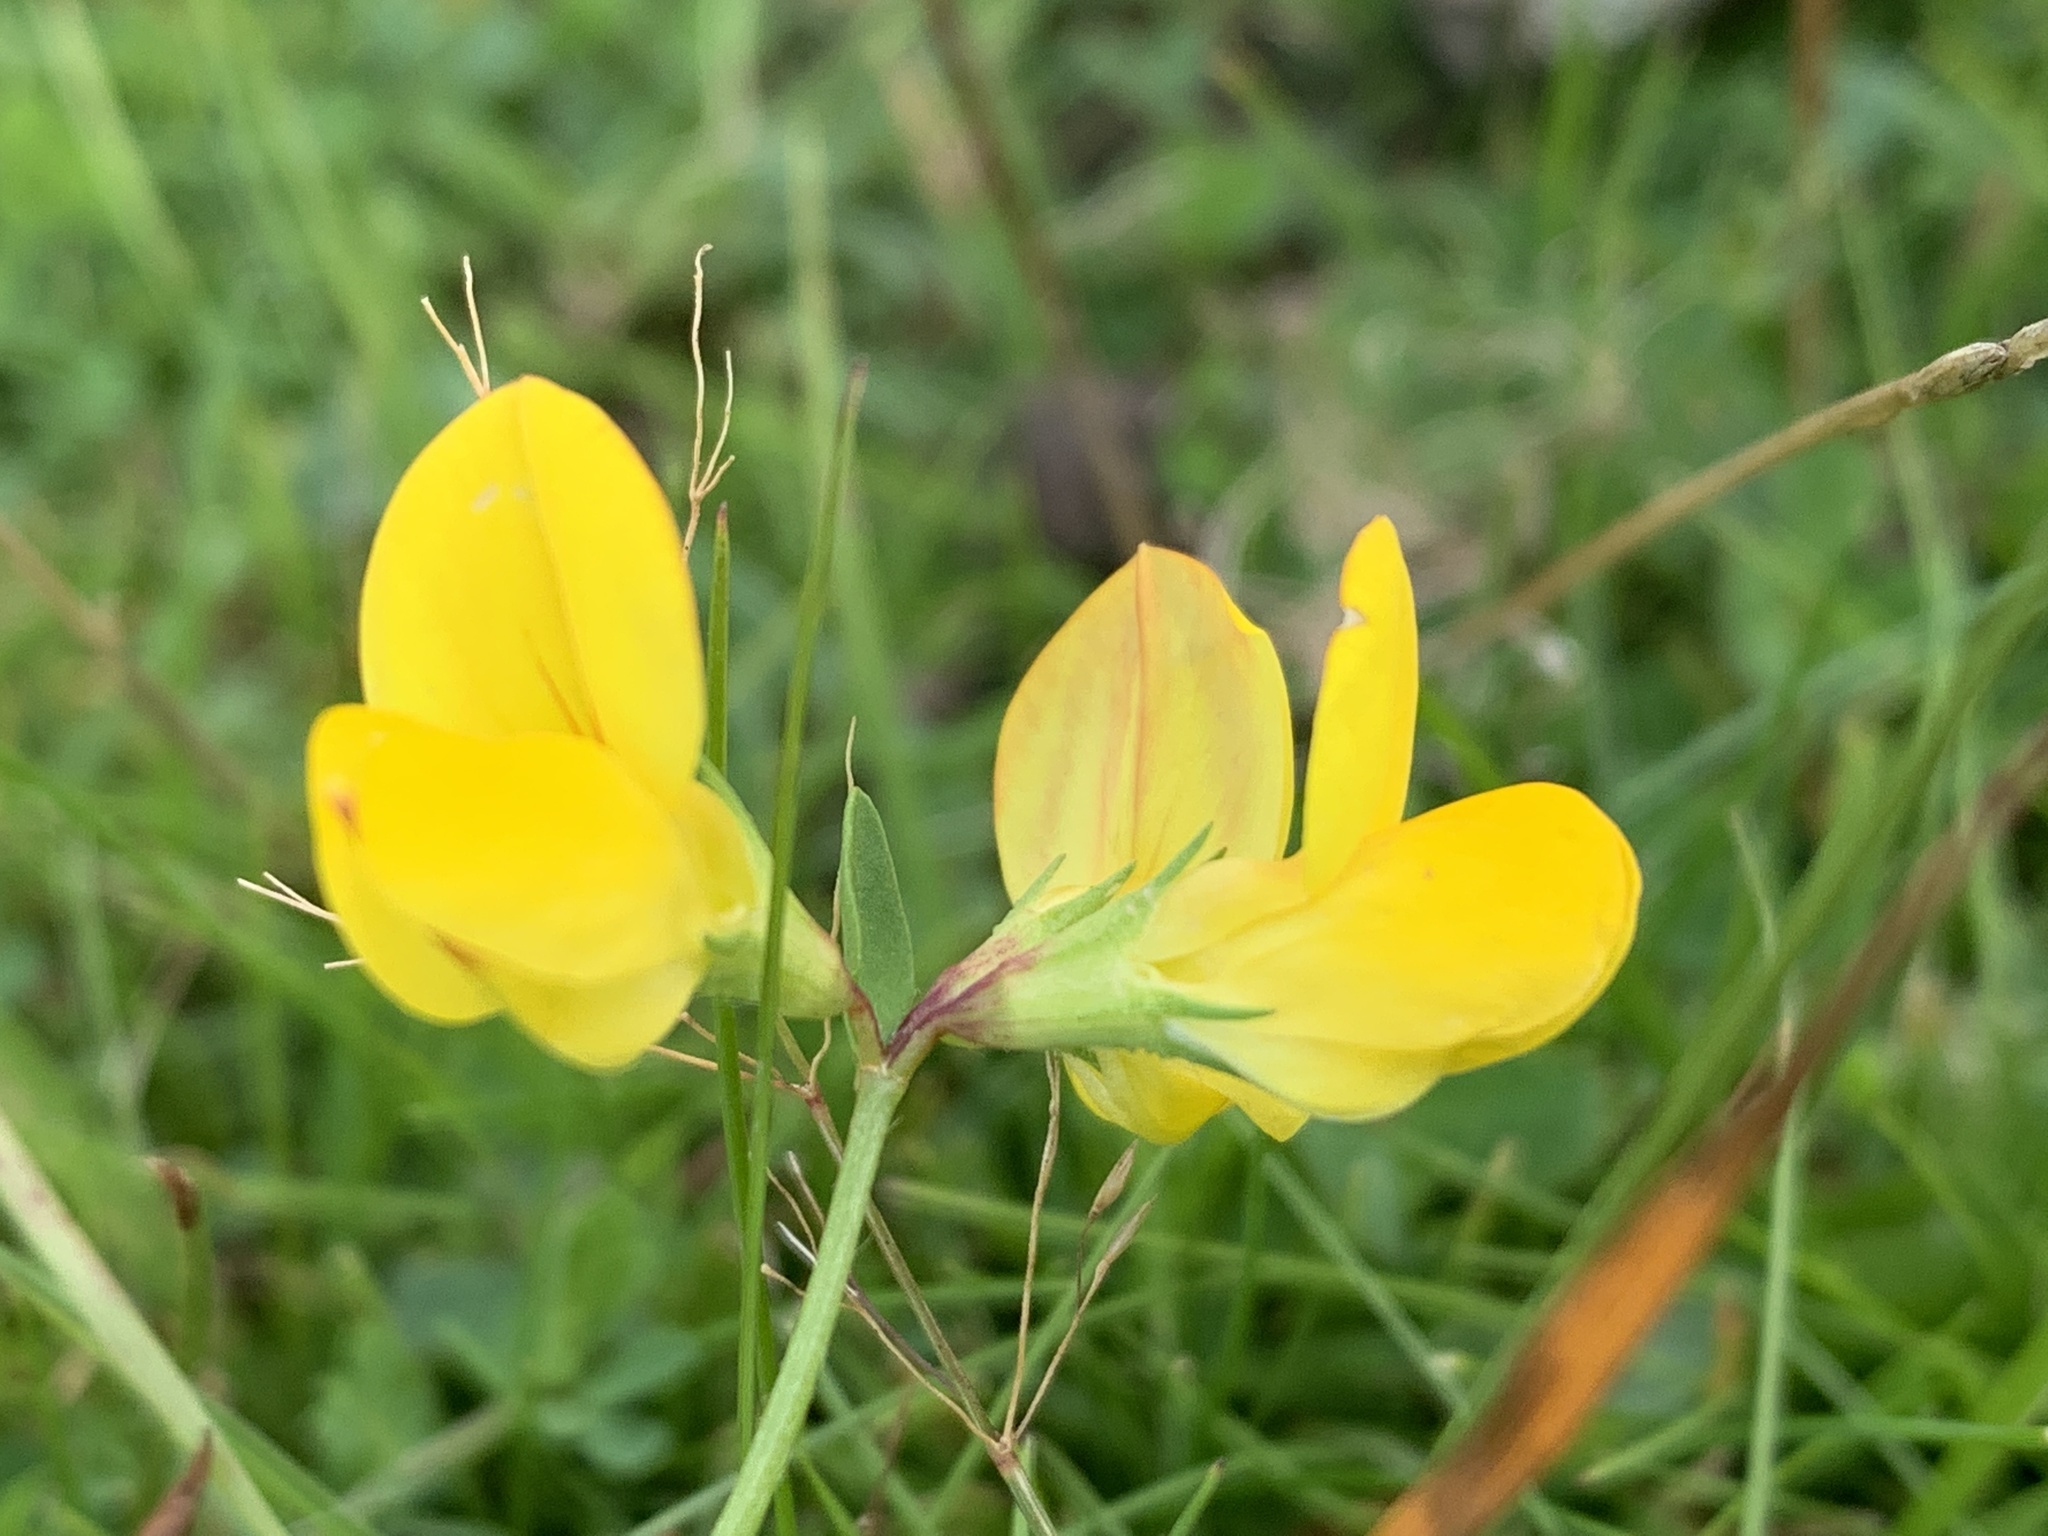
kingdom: Plantae
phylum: Tracheophyta
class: Magnoliopsida
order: Fabales
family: Fabaceae
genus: Lotus
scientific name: Lotus corniculatus
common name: Common bird's-foot-trefoil
